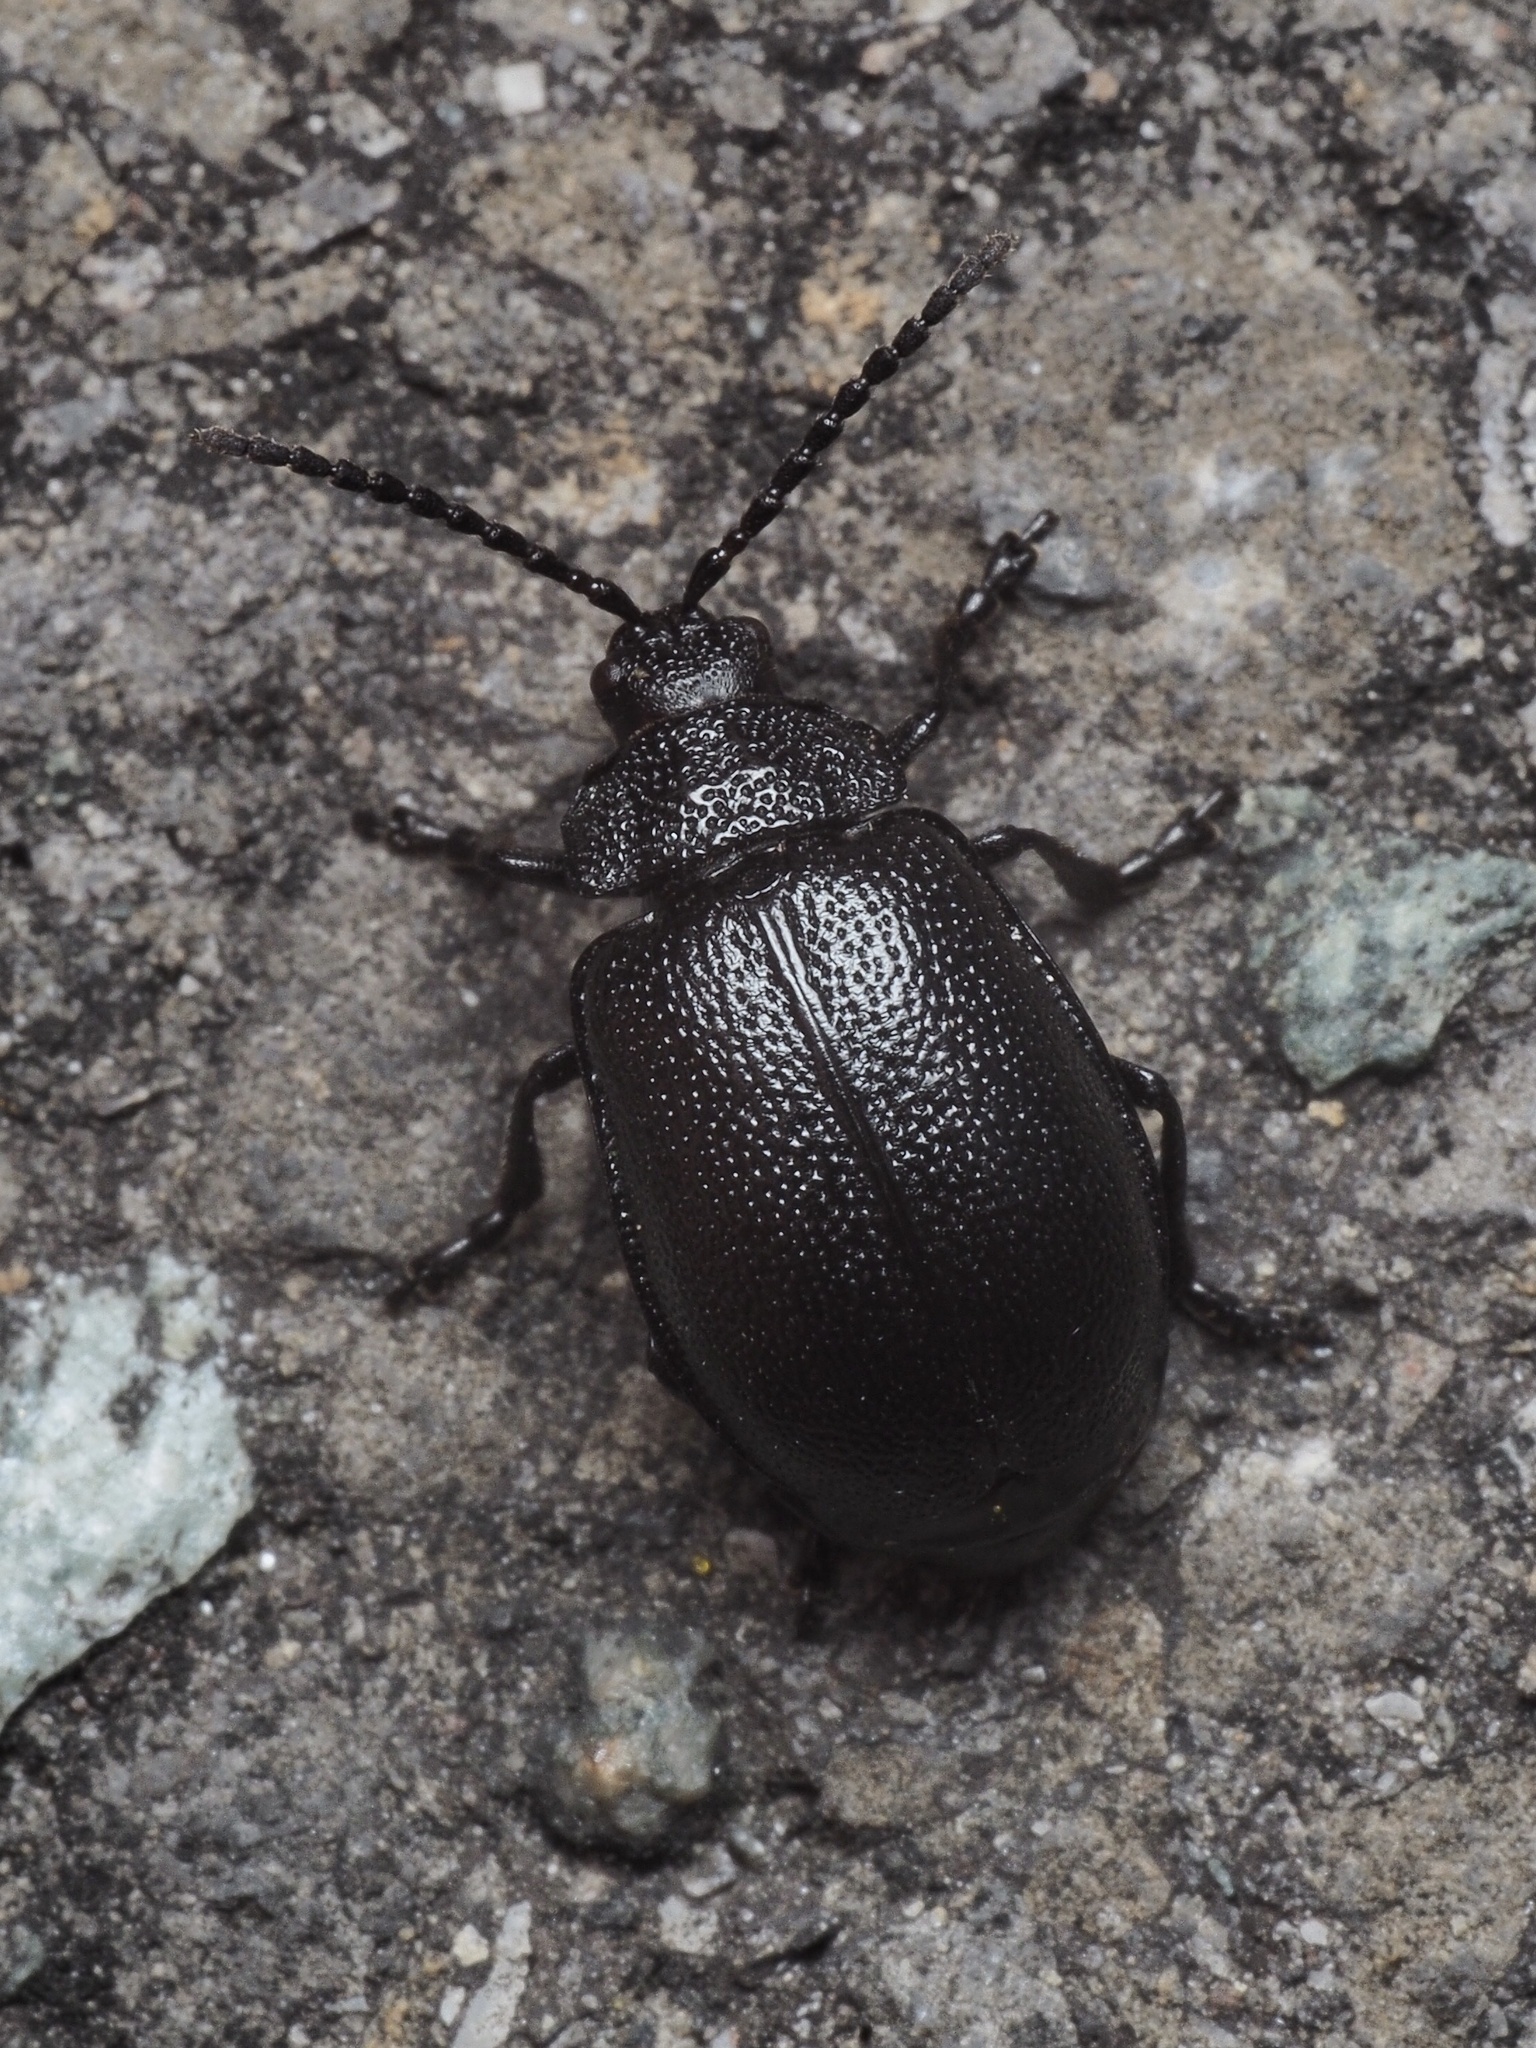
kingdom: Animalia
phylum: Arthropoda
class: Insecta
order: Coleoptera
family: Chrysomelidae
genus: Galeruca
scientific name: Galeruca tanaceti
